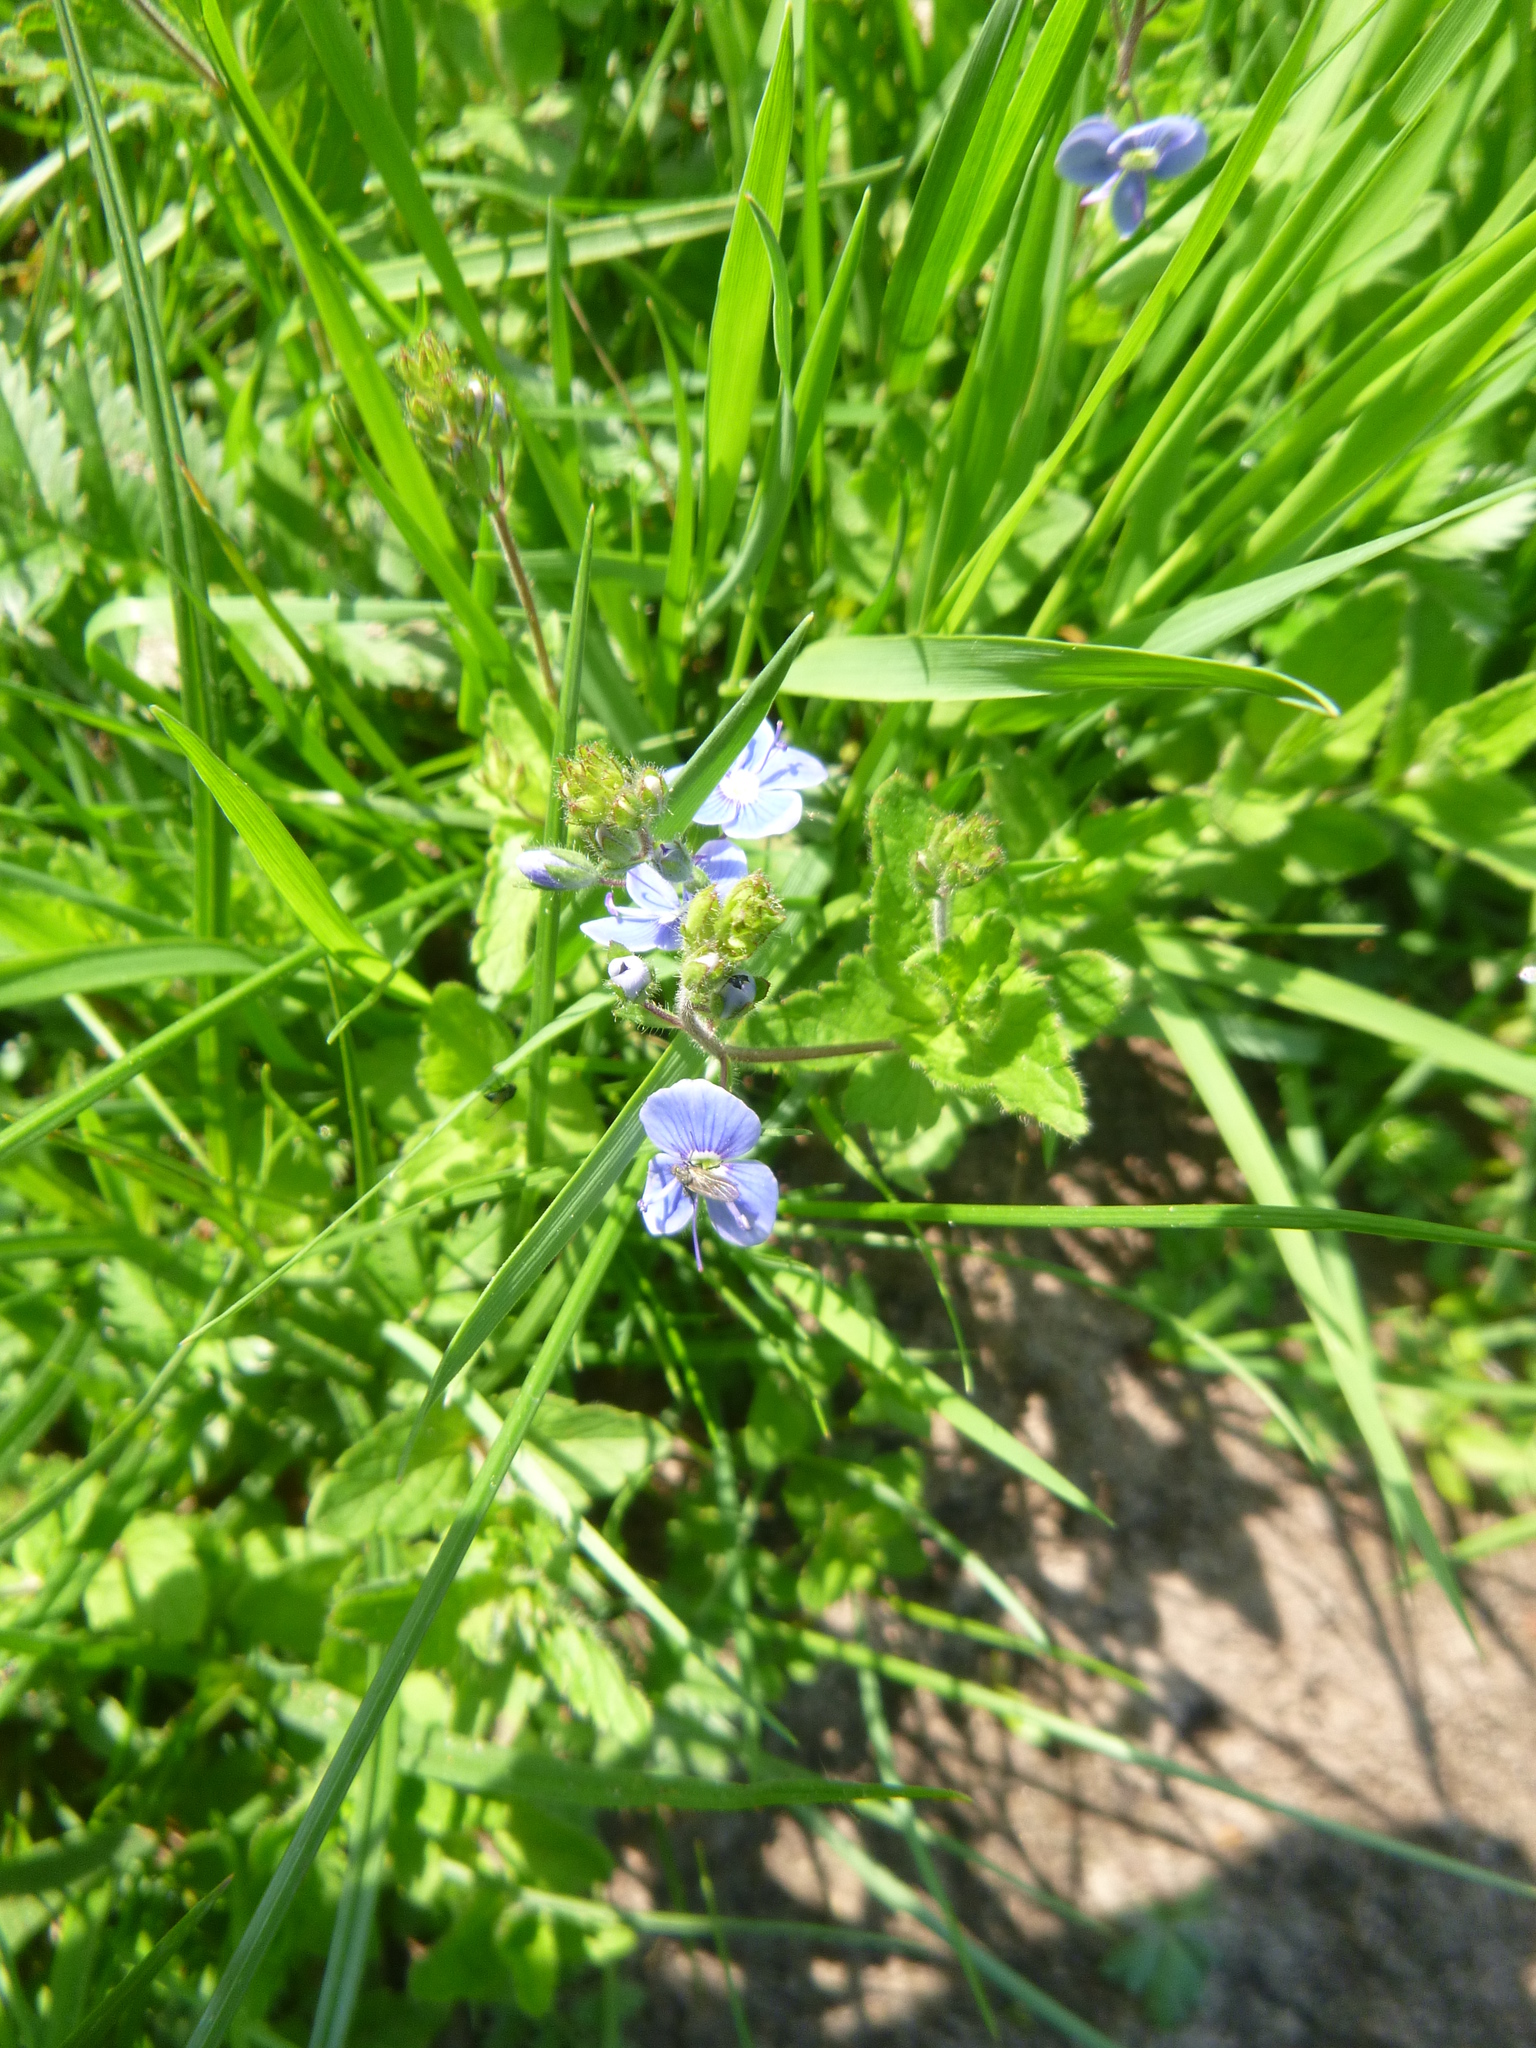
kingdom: Plantae
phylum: Tracheophyta
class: Magnoliopsida
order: Lamiales
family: Plantaginaceae
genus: Veronica
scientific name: Veronica chamaedrys
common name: Germander speedwell
